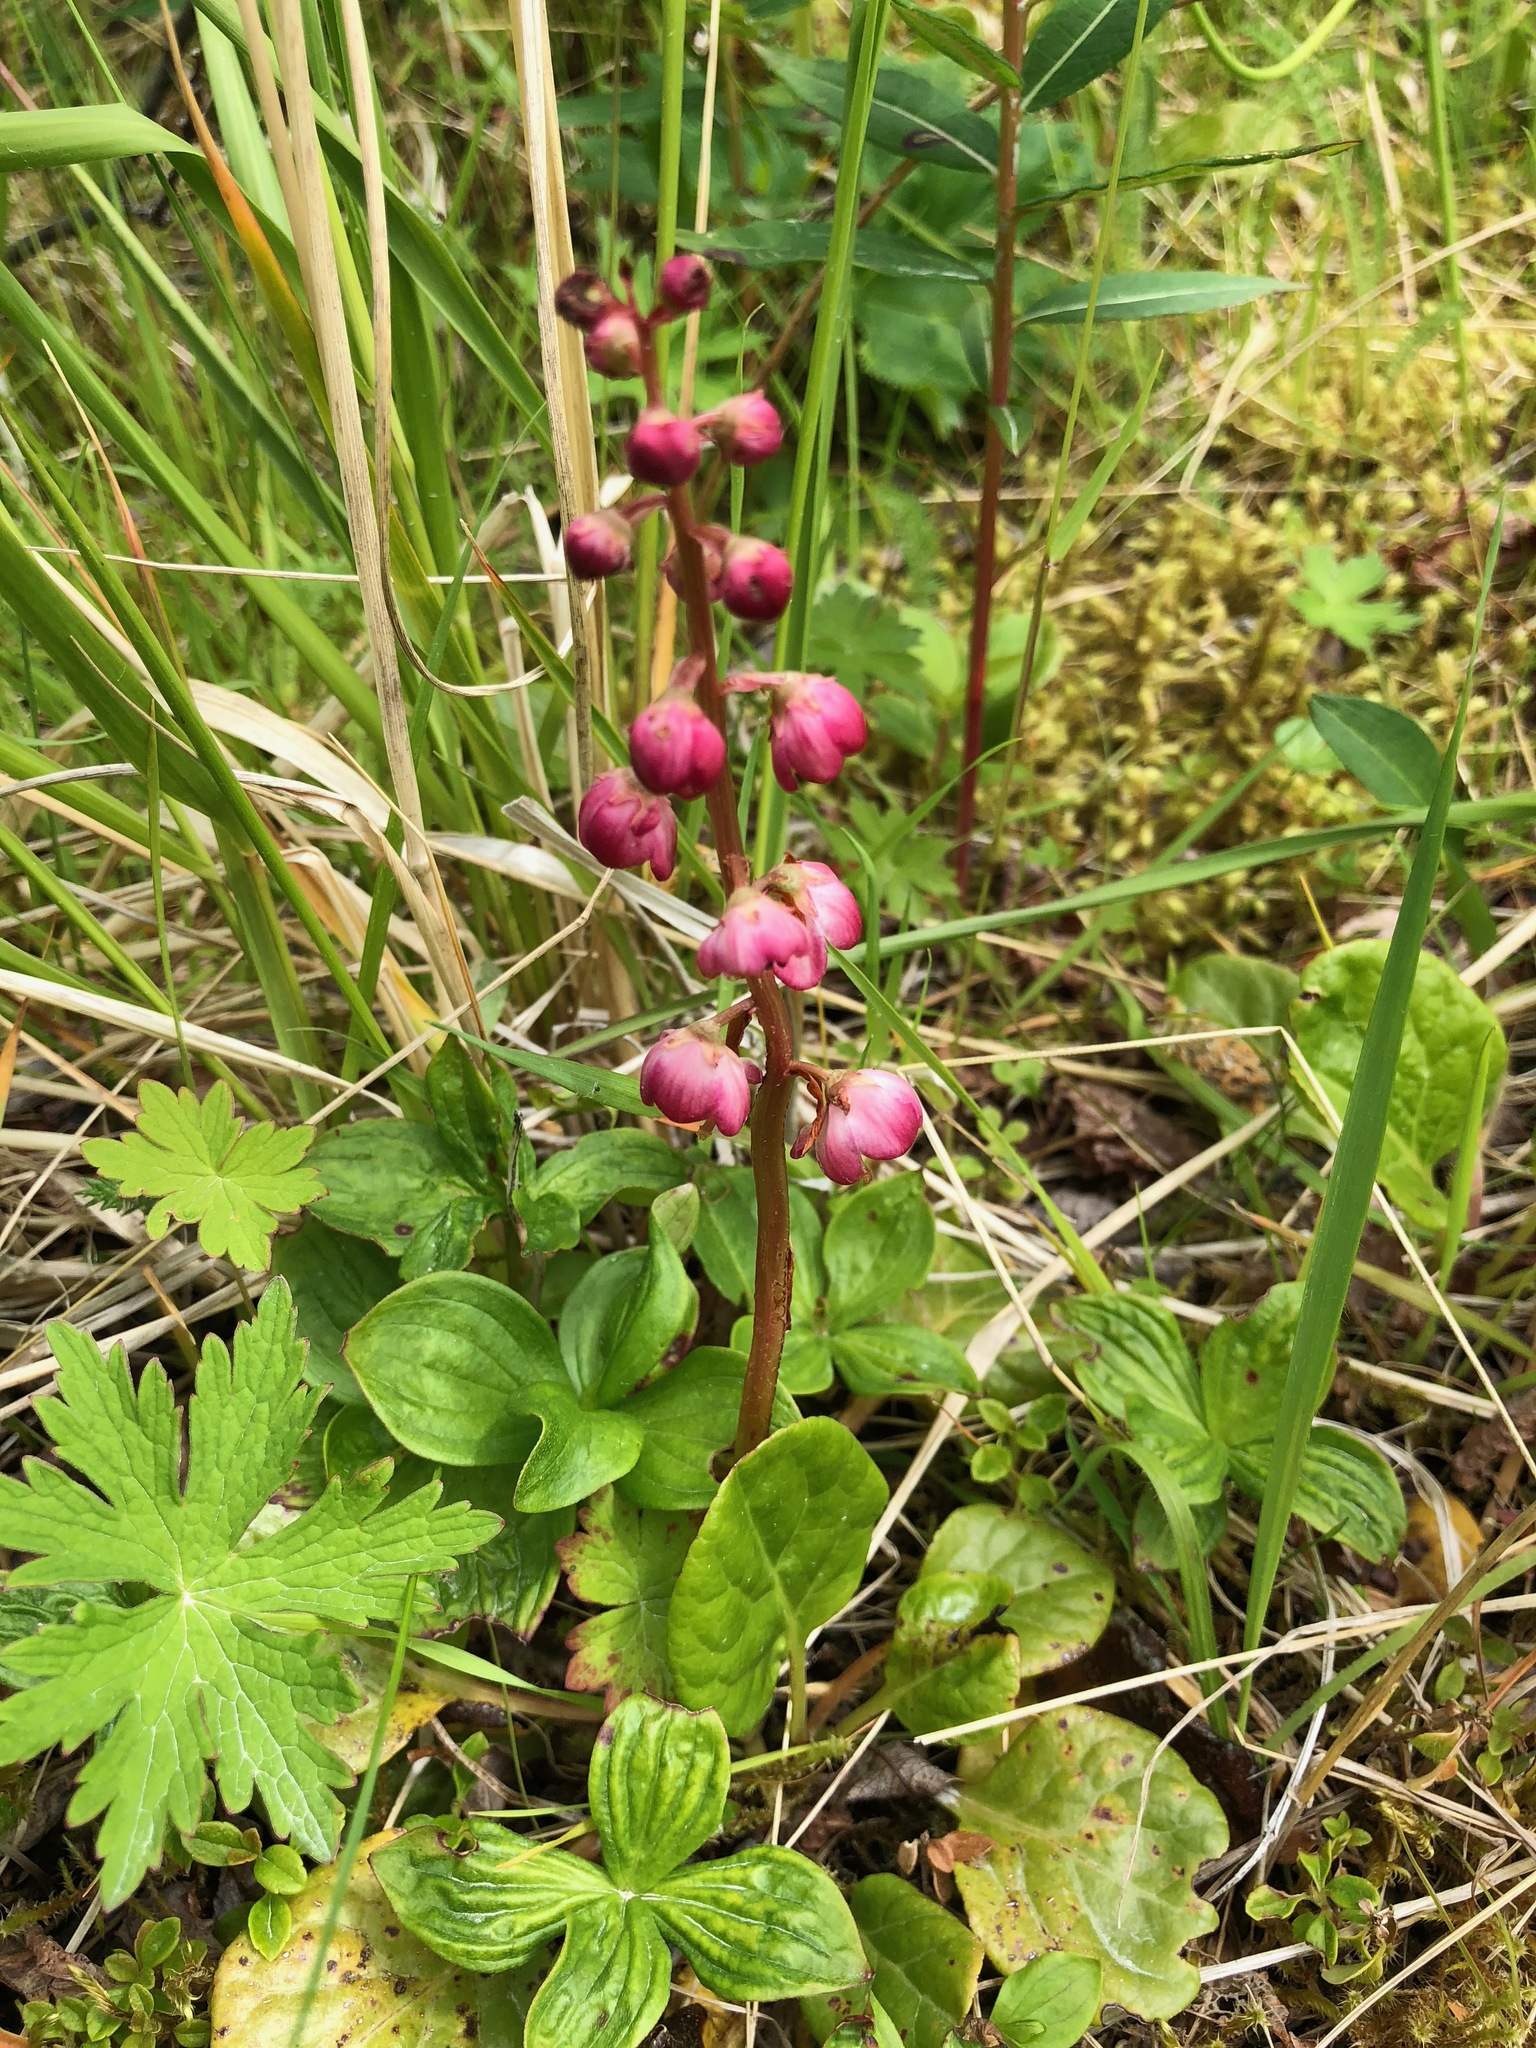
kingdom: Plantae
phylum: Tracheophyta
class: Magnoliopsida
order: Ericales
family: Ericaceae
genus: Pyrola
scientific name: Pyrola asarifolia
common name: Bog wintergreen
